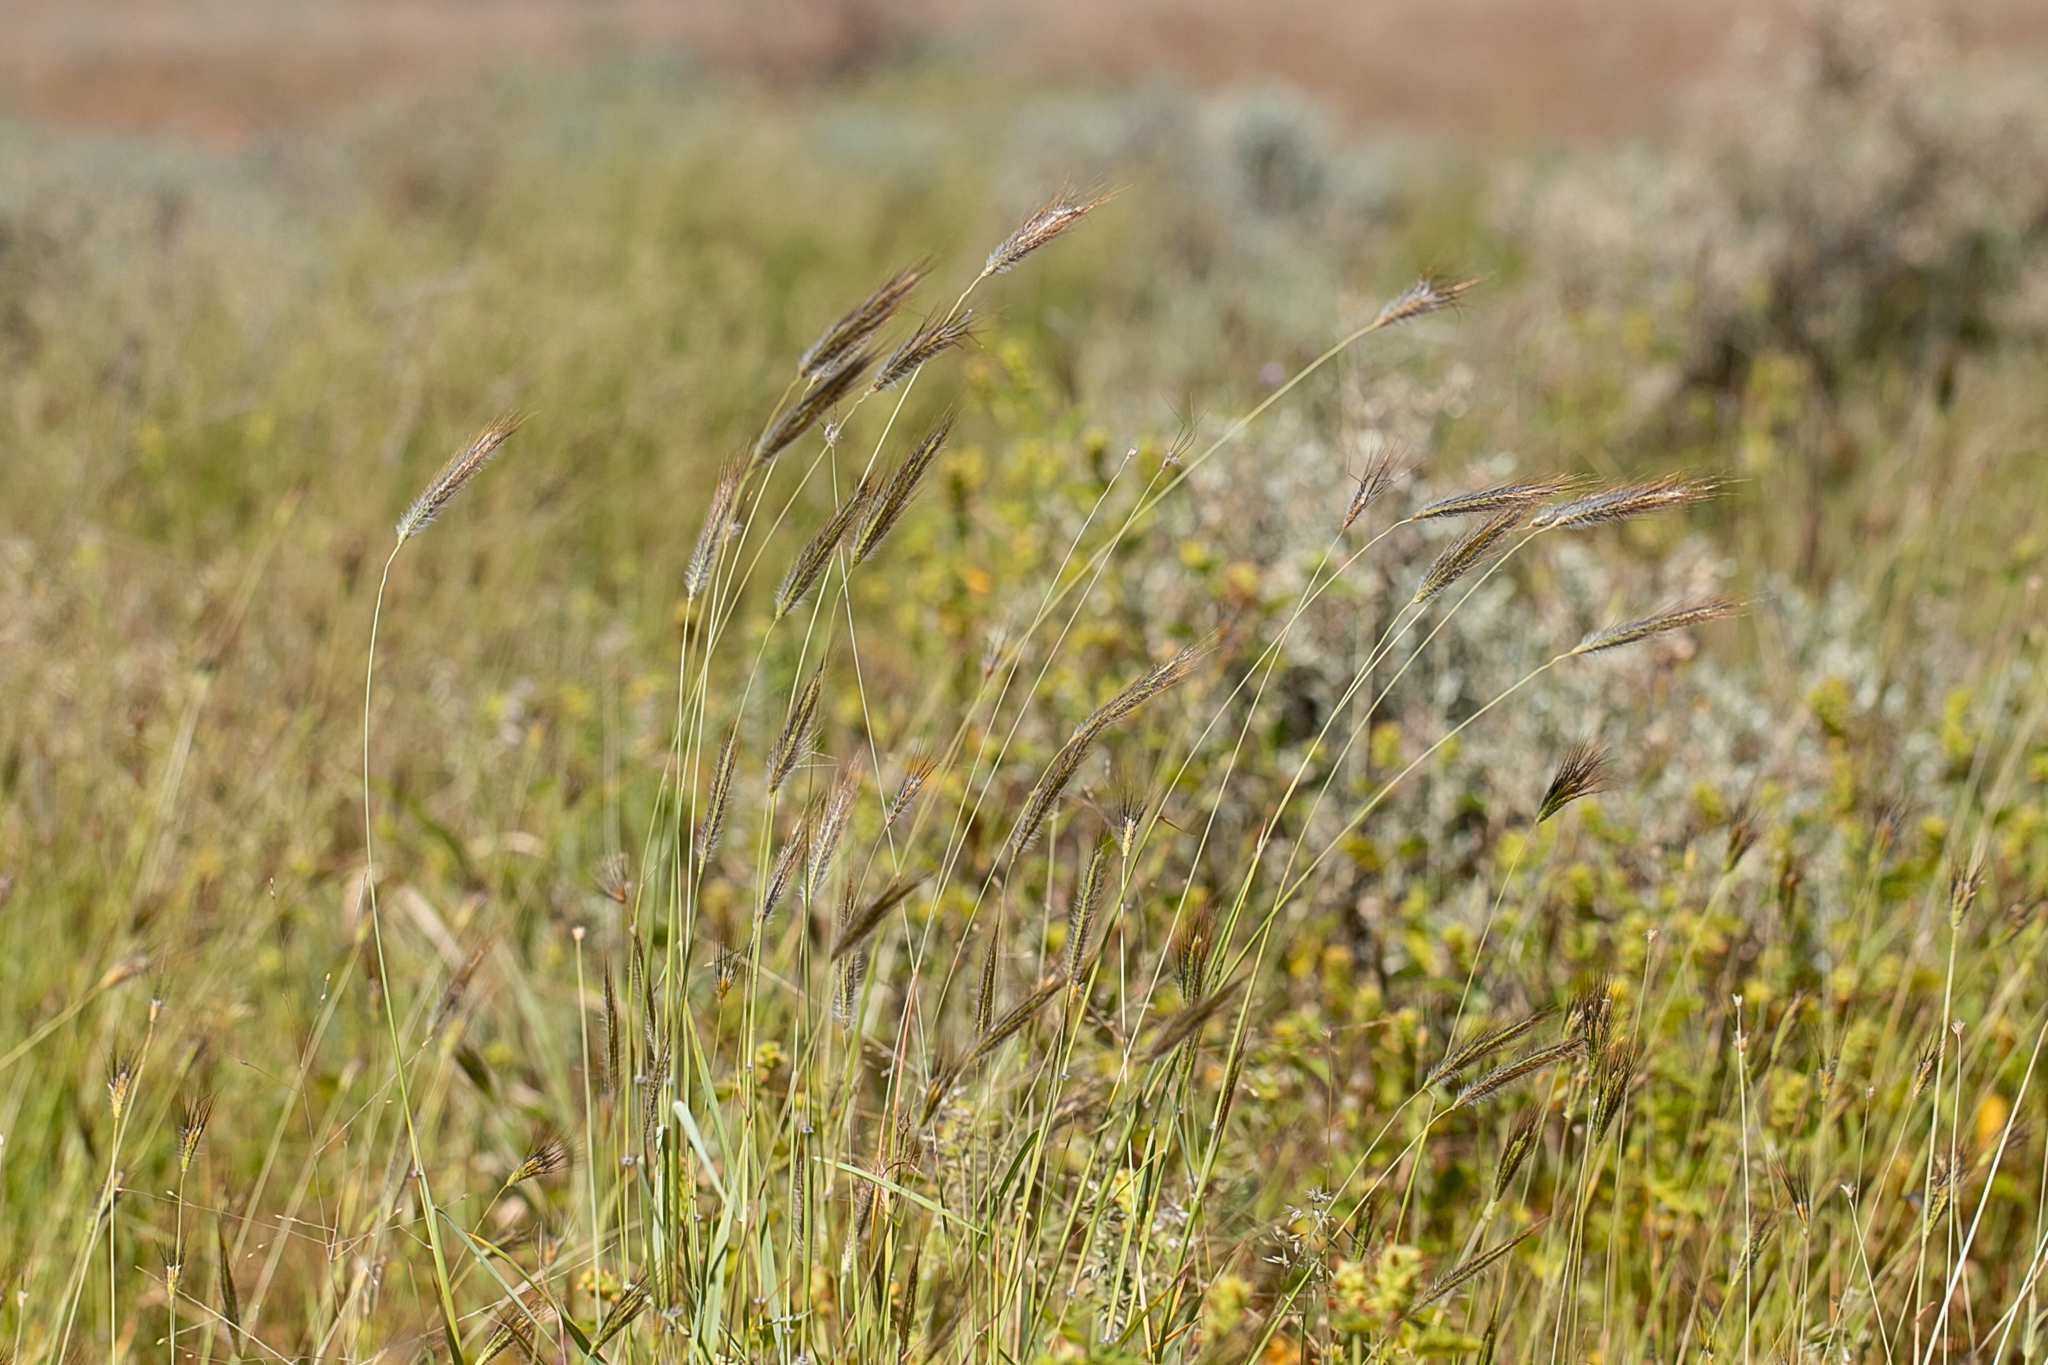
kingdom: Plantae
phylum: Tracheophyta
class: Liliopsida
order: Poales
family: Poaceae
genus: Dichanthium
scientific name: Dichanthium sericeum
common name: Silky bluestem
